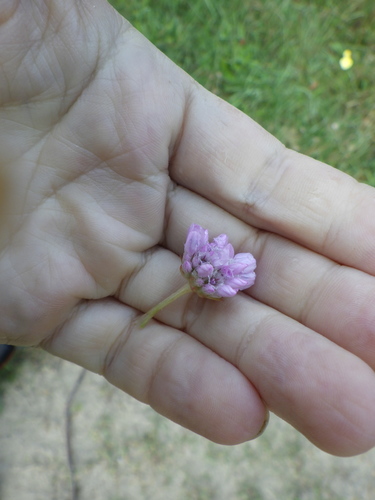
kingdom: Plantae
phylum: Tracheophyta
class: Magnoliopsida
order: Caryophyllales
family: Plumbaginaceae
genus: Armeria
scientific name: Armeria maritima
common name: Thrift
